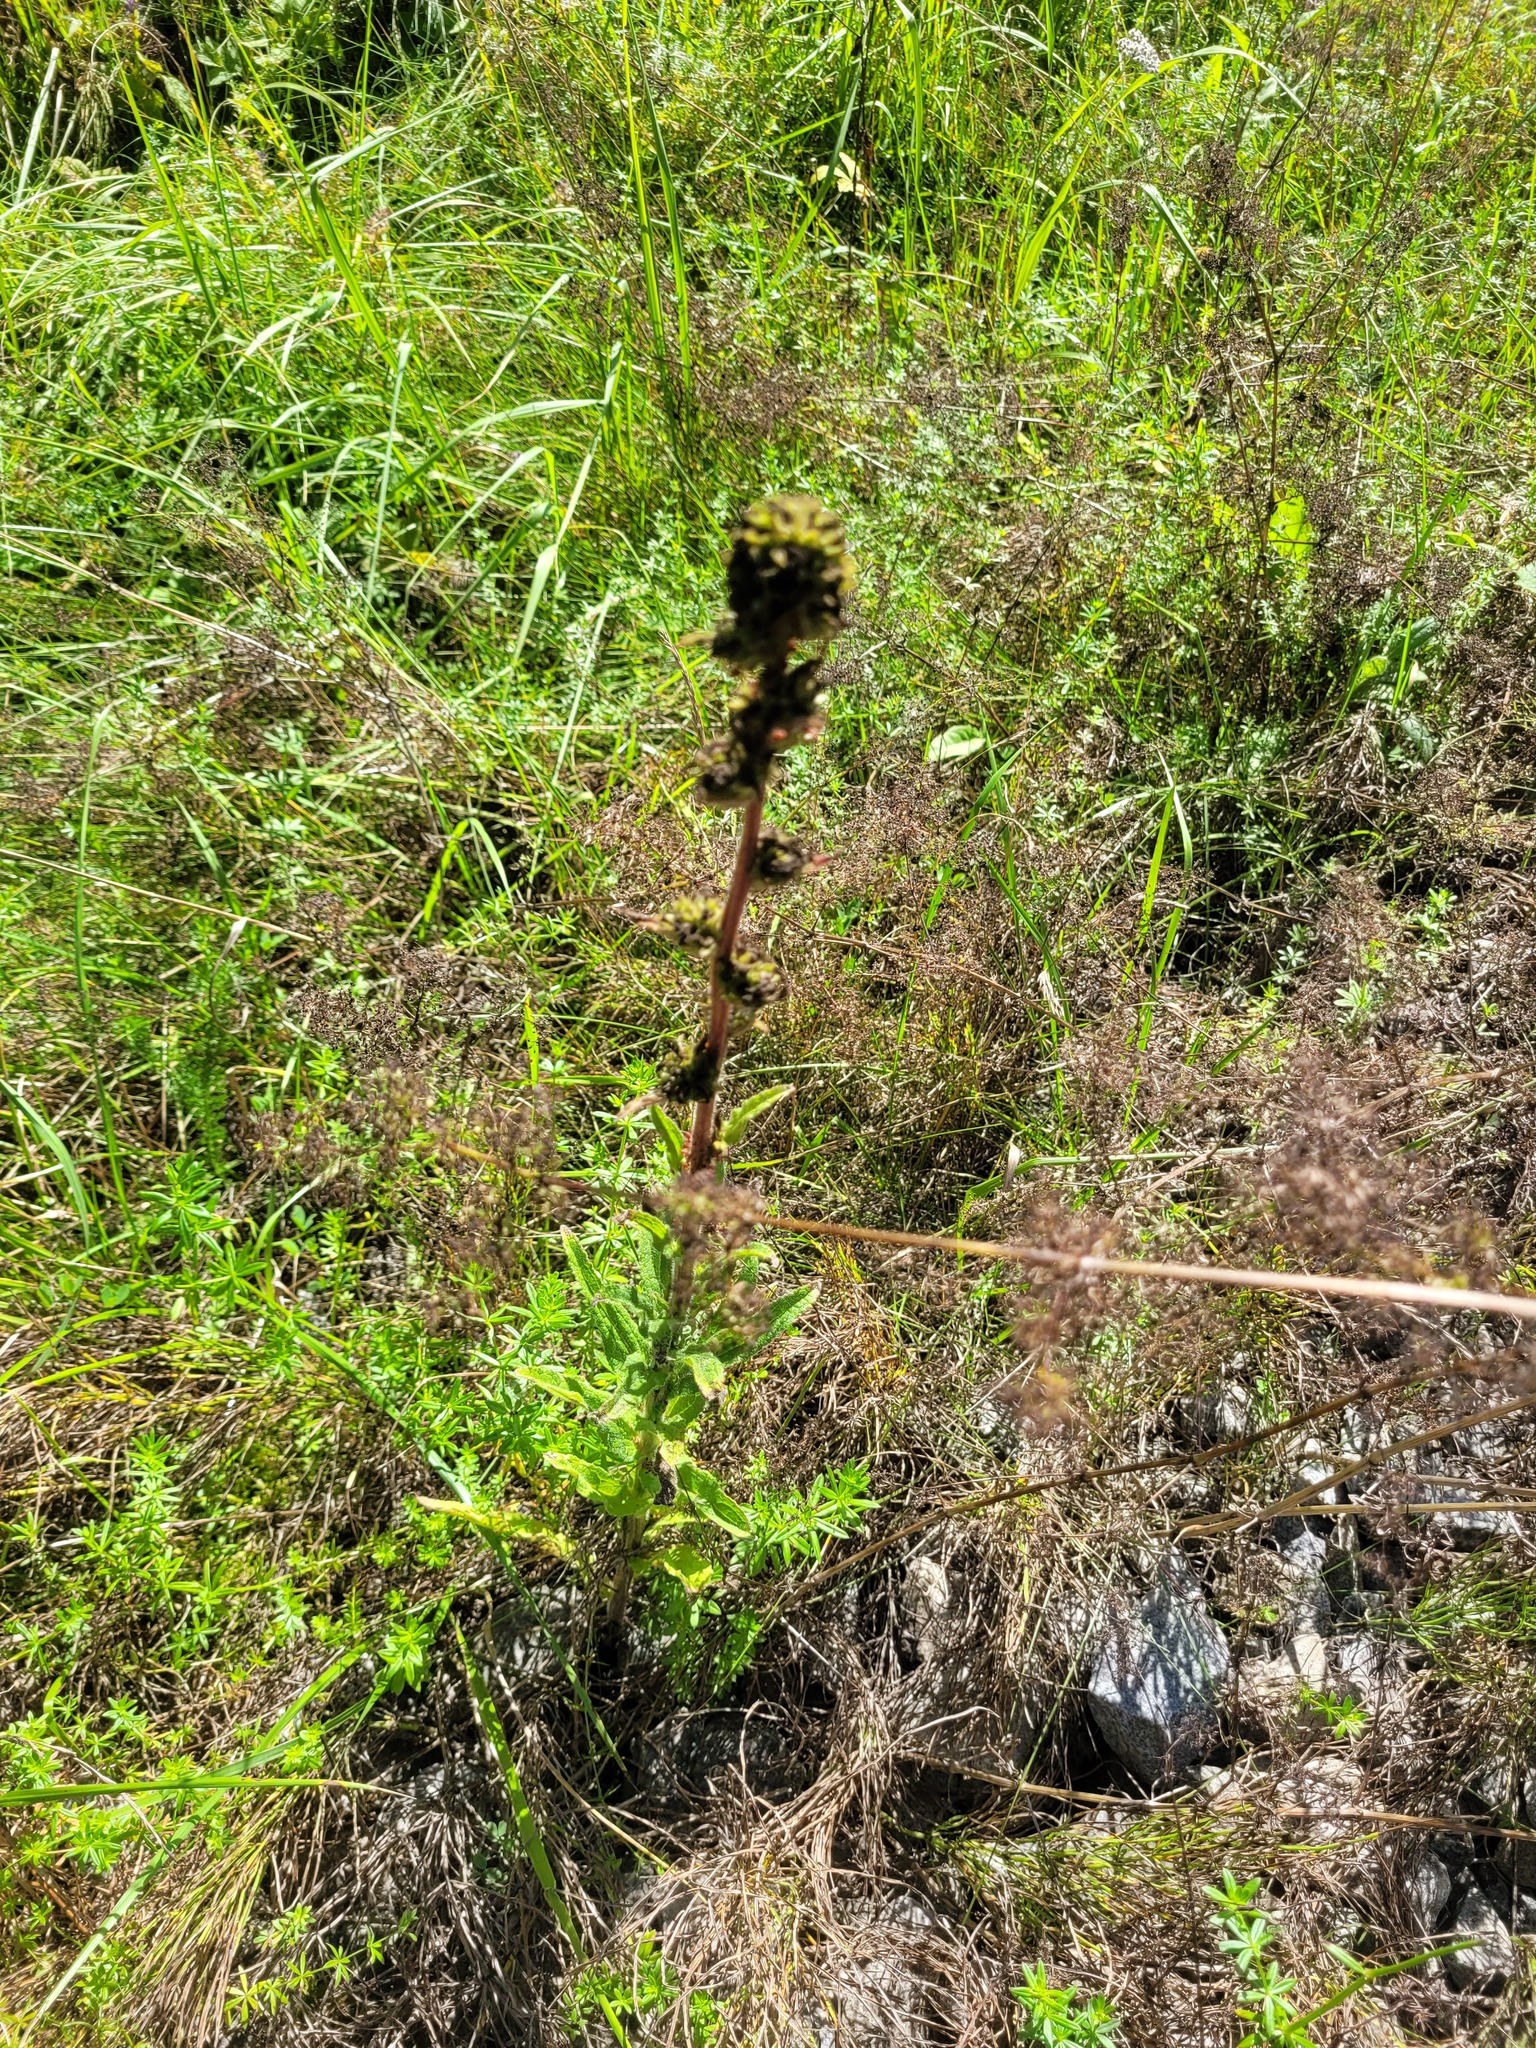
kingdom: Plantae
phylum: Tracheophyta
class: Magnoliopsida
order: Asterales
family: Campanulaceae
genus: Campanula
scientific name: Campanula cervicaria
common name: Bristly bellflower
